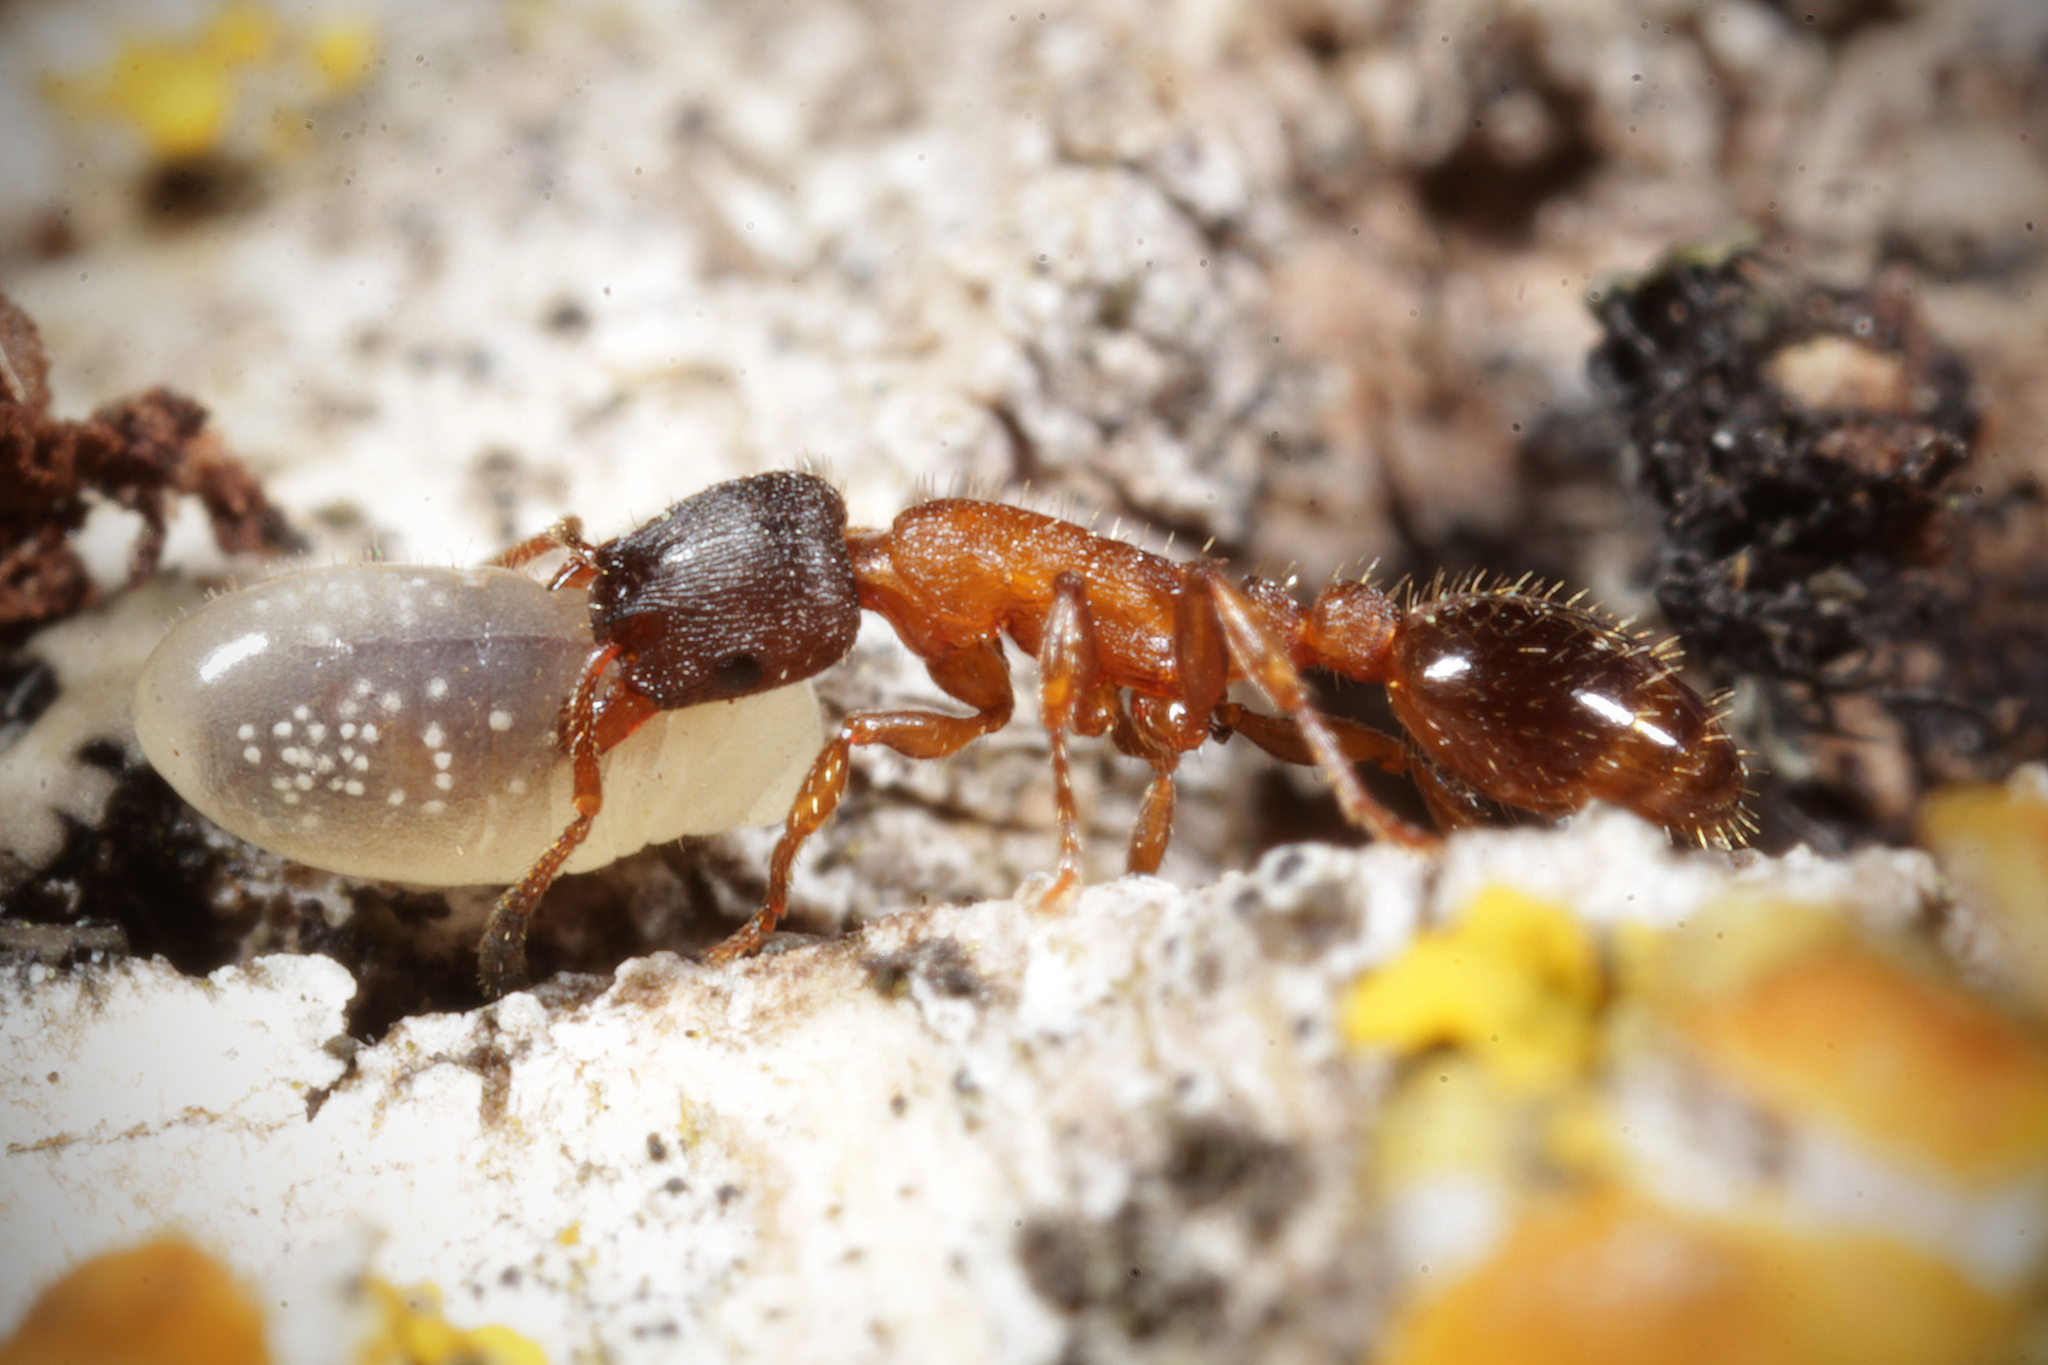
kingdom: Animalia
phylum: Arthropoda
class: Insecta
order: Hymenoptera
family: Formicidae
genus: Leptothorax
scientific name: Leptothorax acervorum
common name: Slender ant
